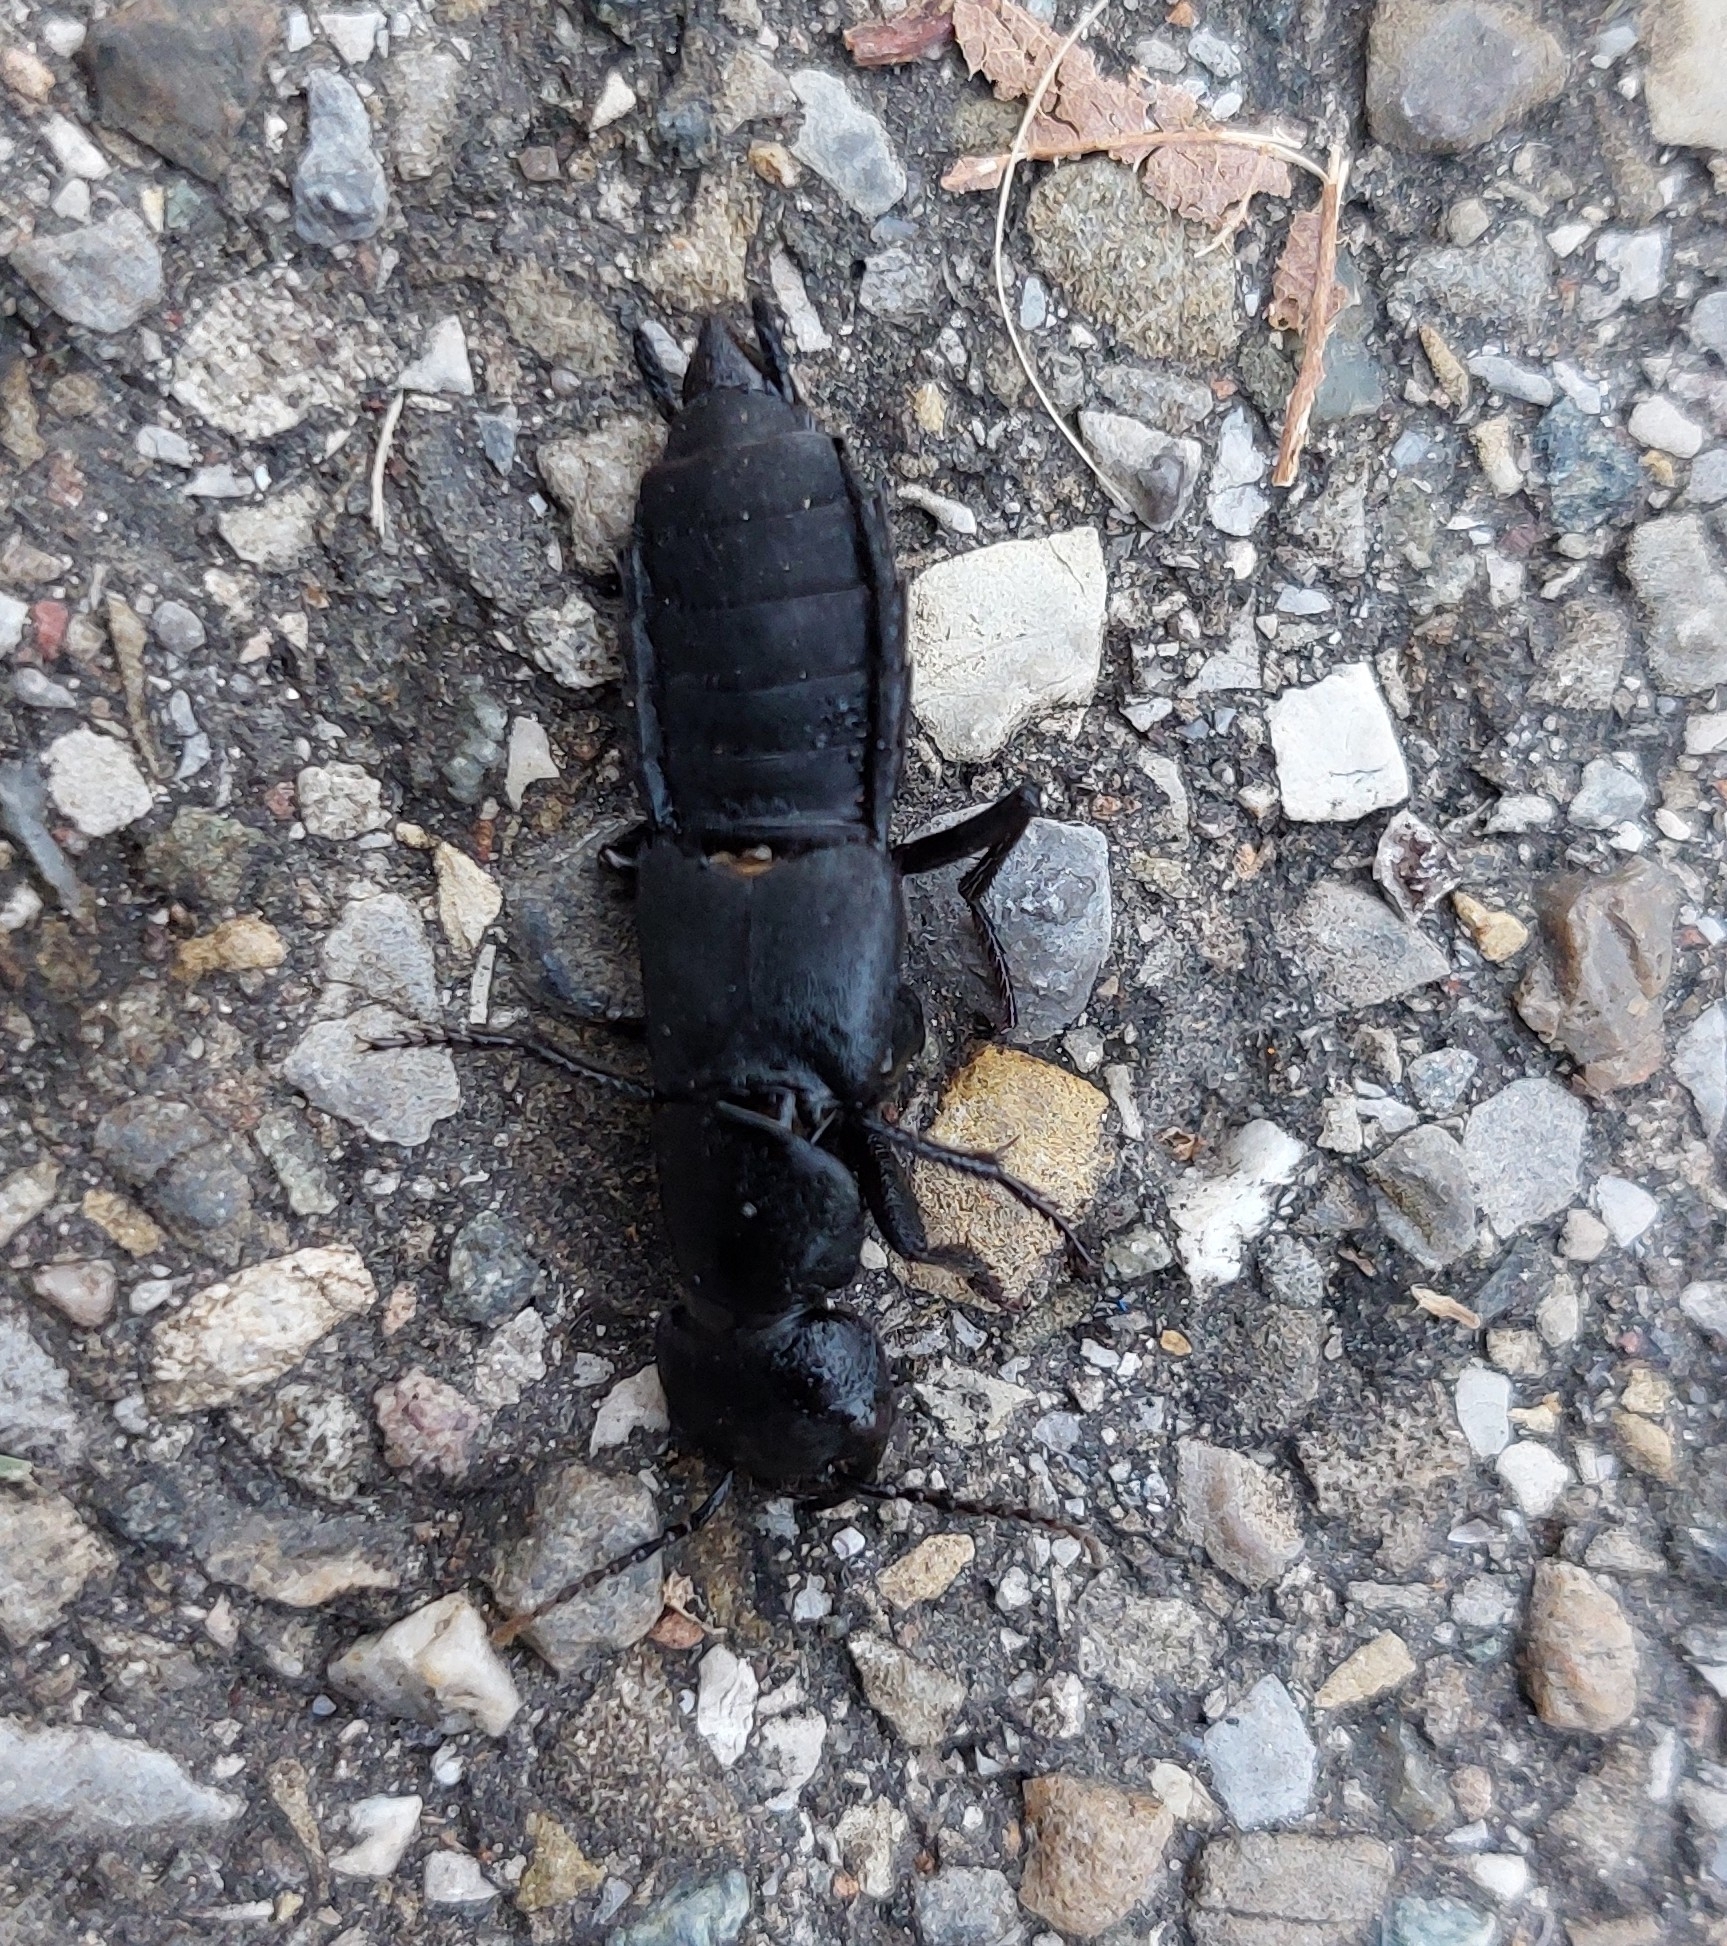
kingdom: Animalia
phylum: Arthropoda
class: Insecta
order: Coleoptera
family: Staphylinidae
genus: Ocypus
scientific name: Ocypus olens
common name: Devil's coach-horse
